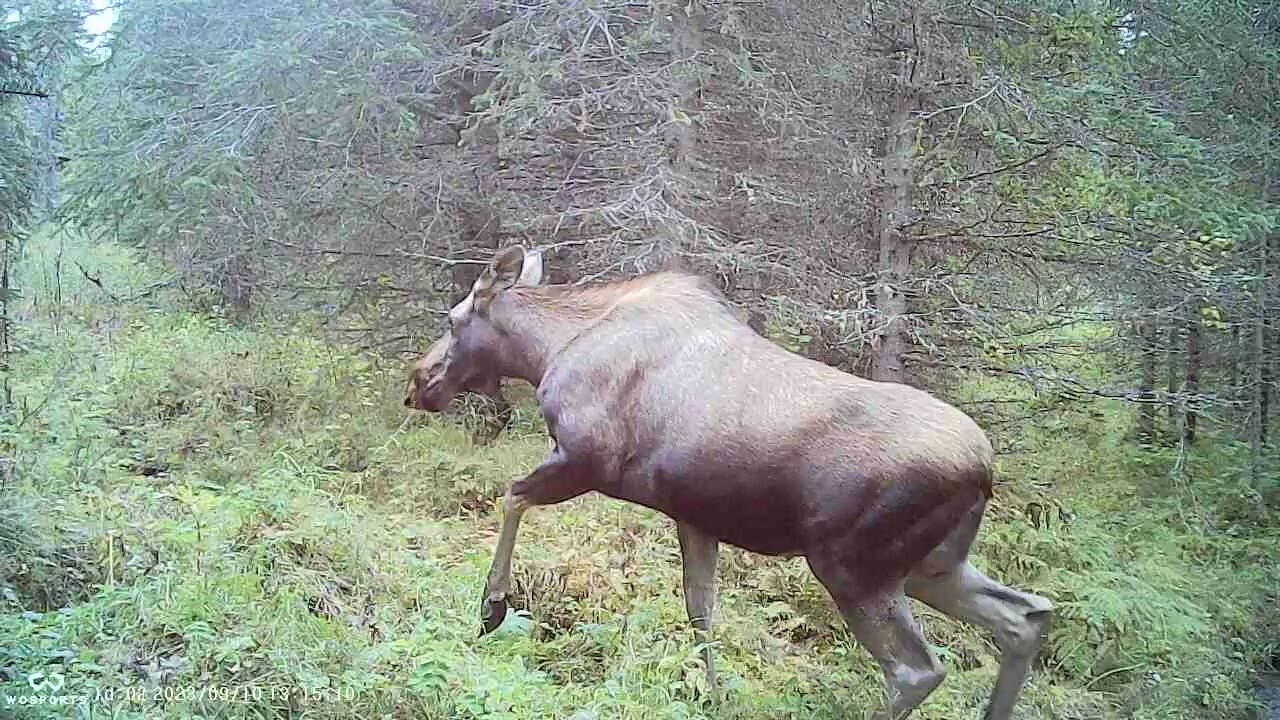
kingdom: Animalia
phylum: Chordata
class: Mammalia
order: Artiodactyla
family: Cervidae
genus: Alces
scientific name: Alces alces
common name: Moose
